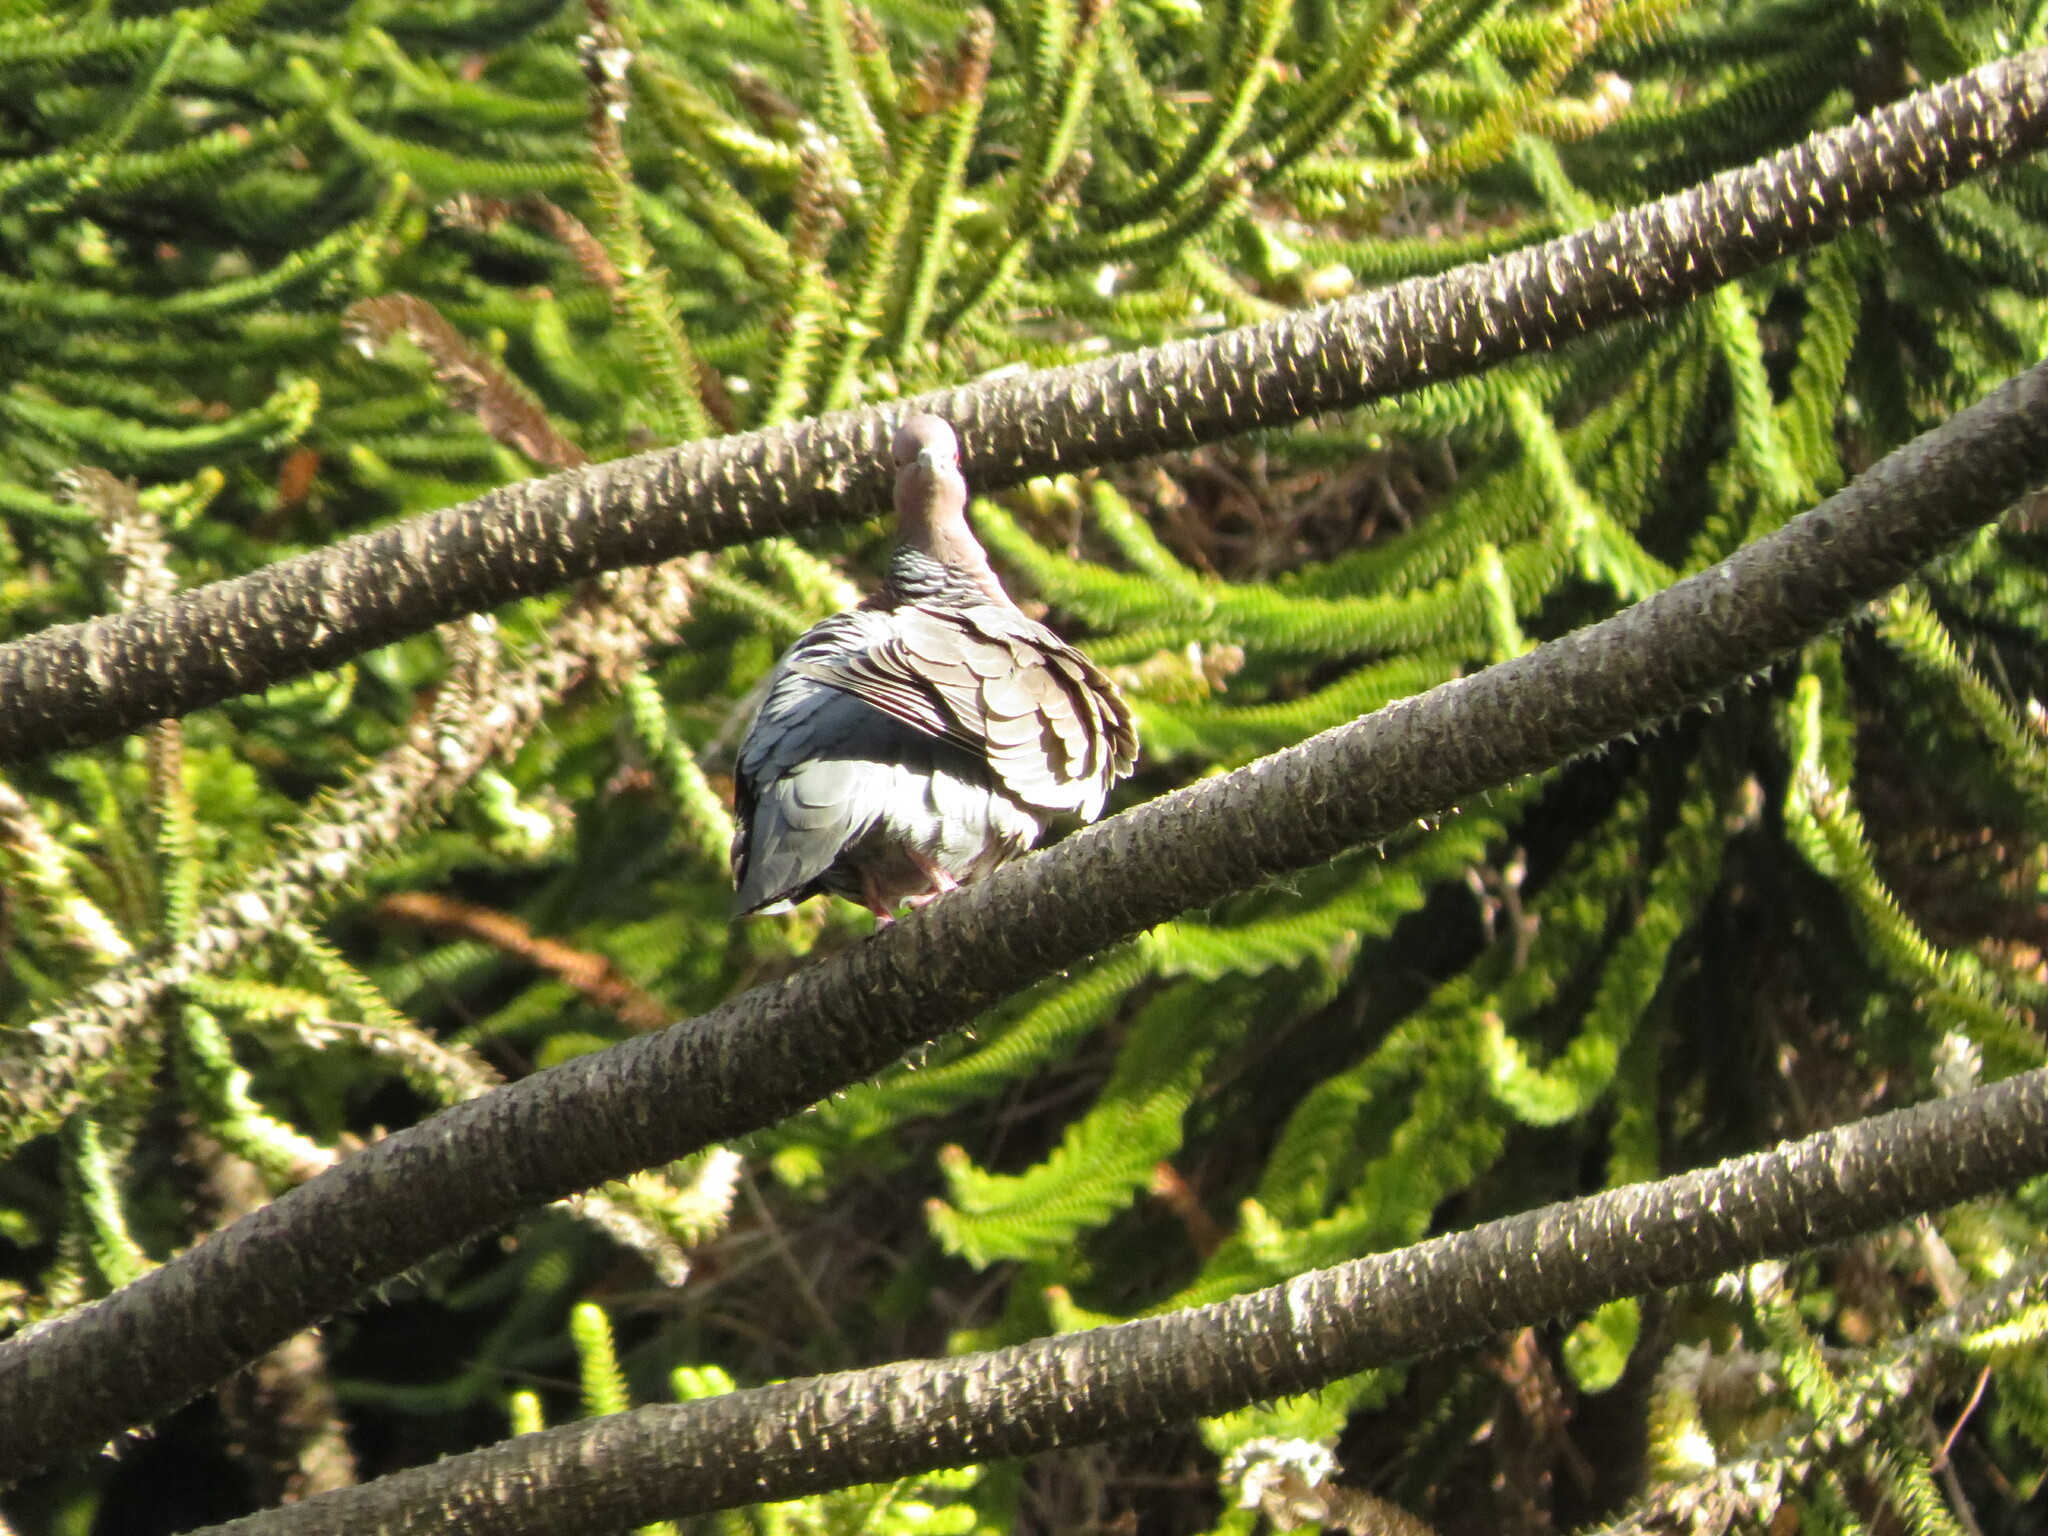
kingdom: Animalia
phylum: Chordata
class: Aves
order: Columbiformes
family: Columbidae
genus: Patagioenas
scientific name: Patagioenas picazuro
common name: Picazuro pigeon
